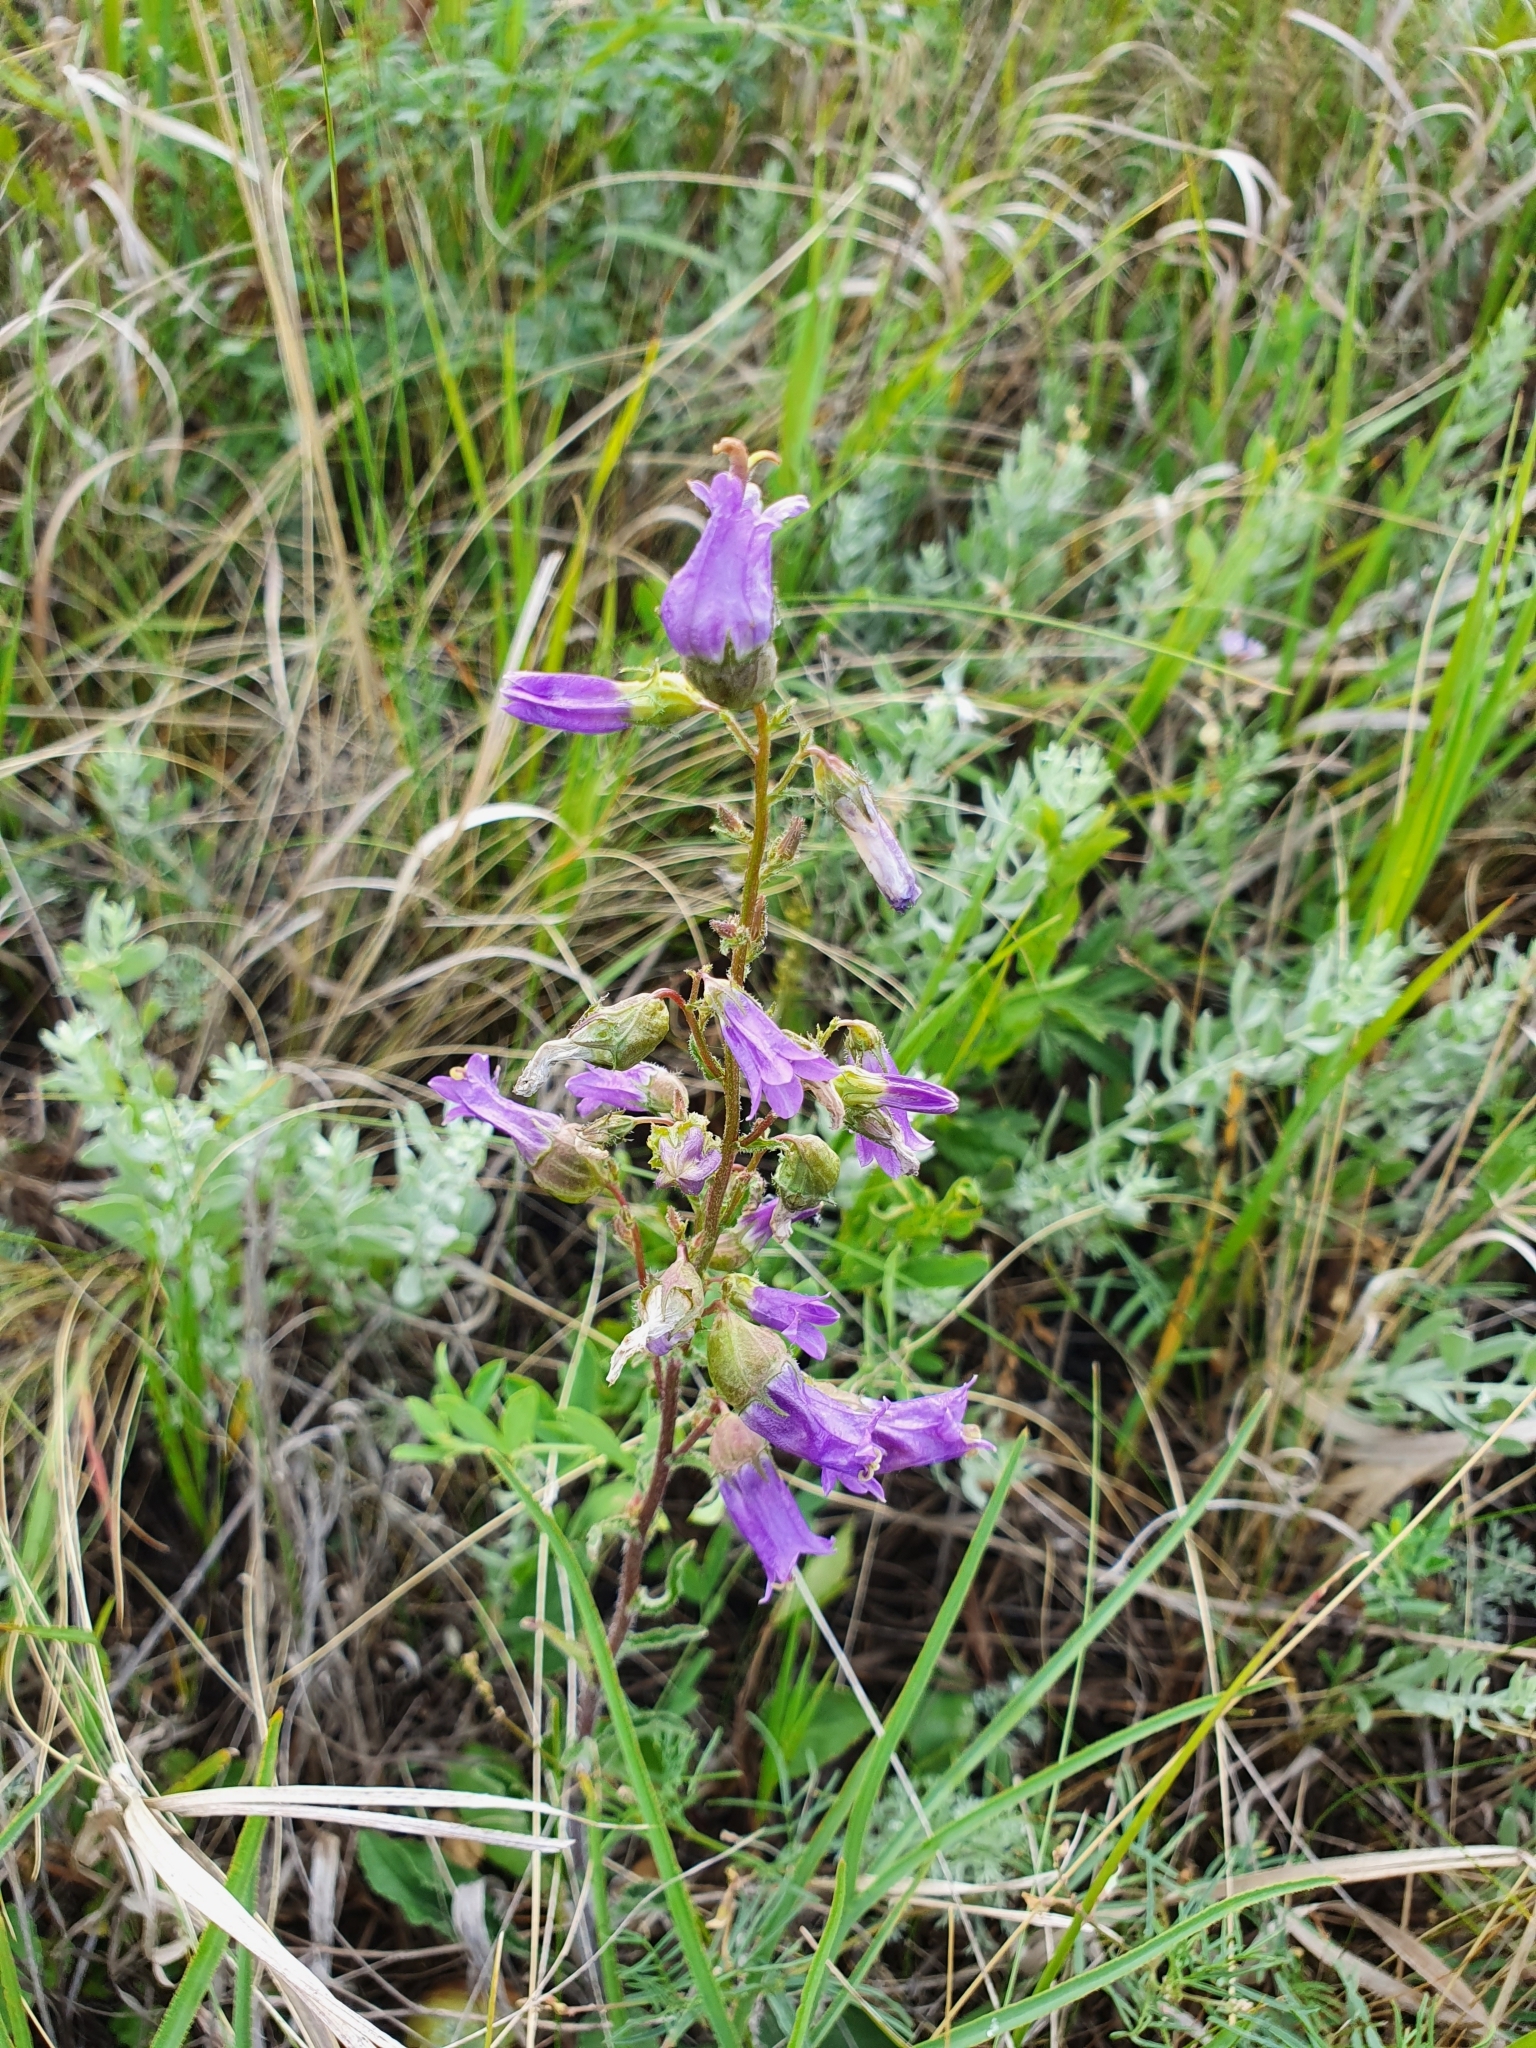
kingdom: Plantae
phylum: Tracheophyta
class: Magnoliopsida
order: Asterales
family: Campanulaceae
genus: Campanula
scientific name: Campanula sibirica
